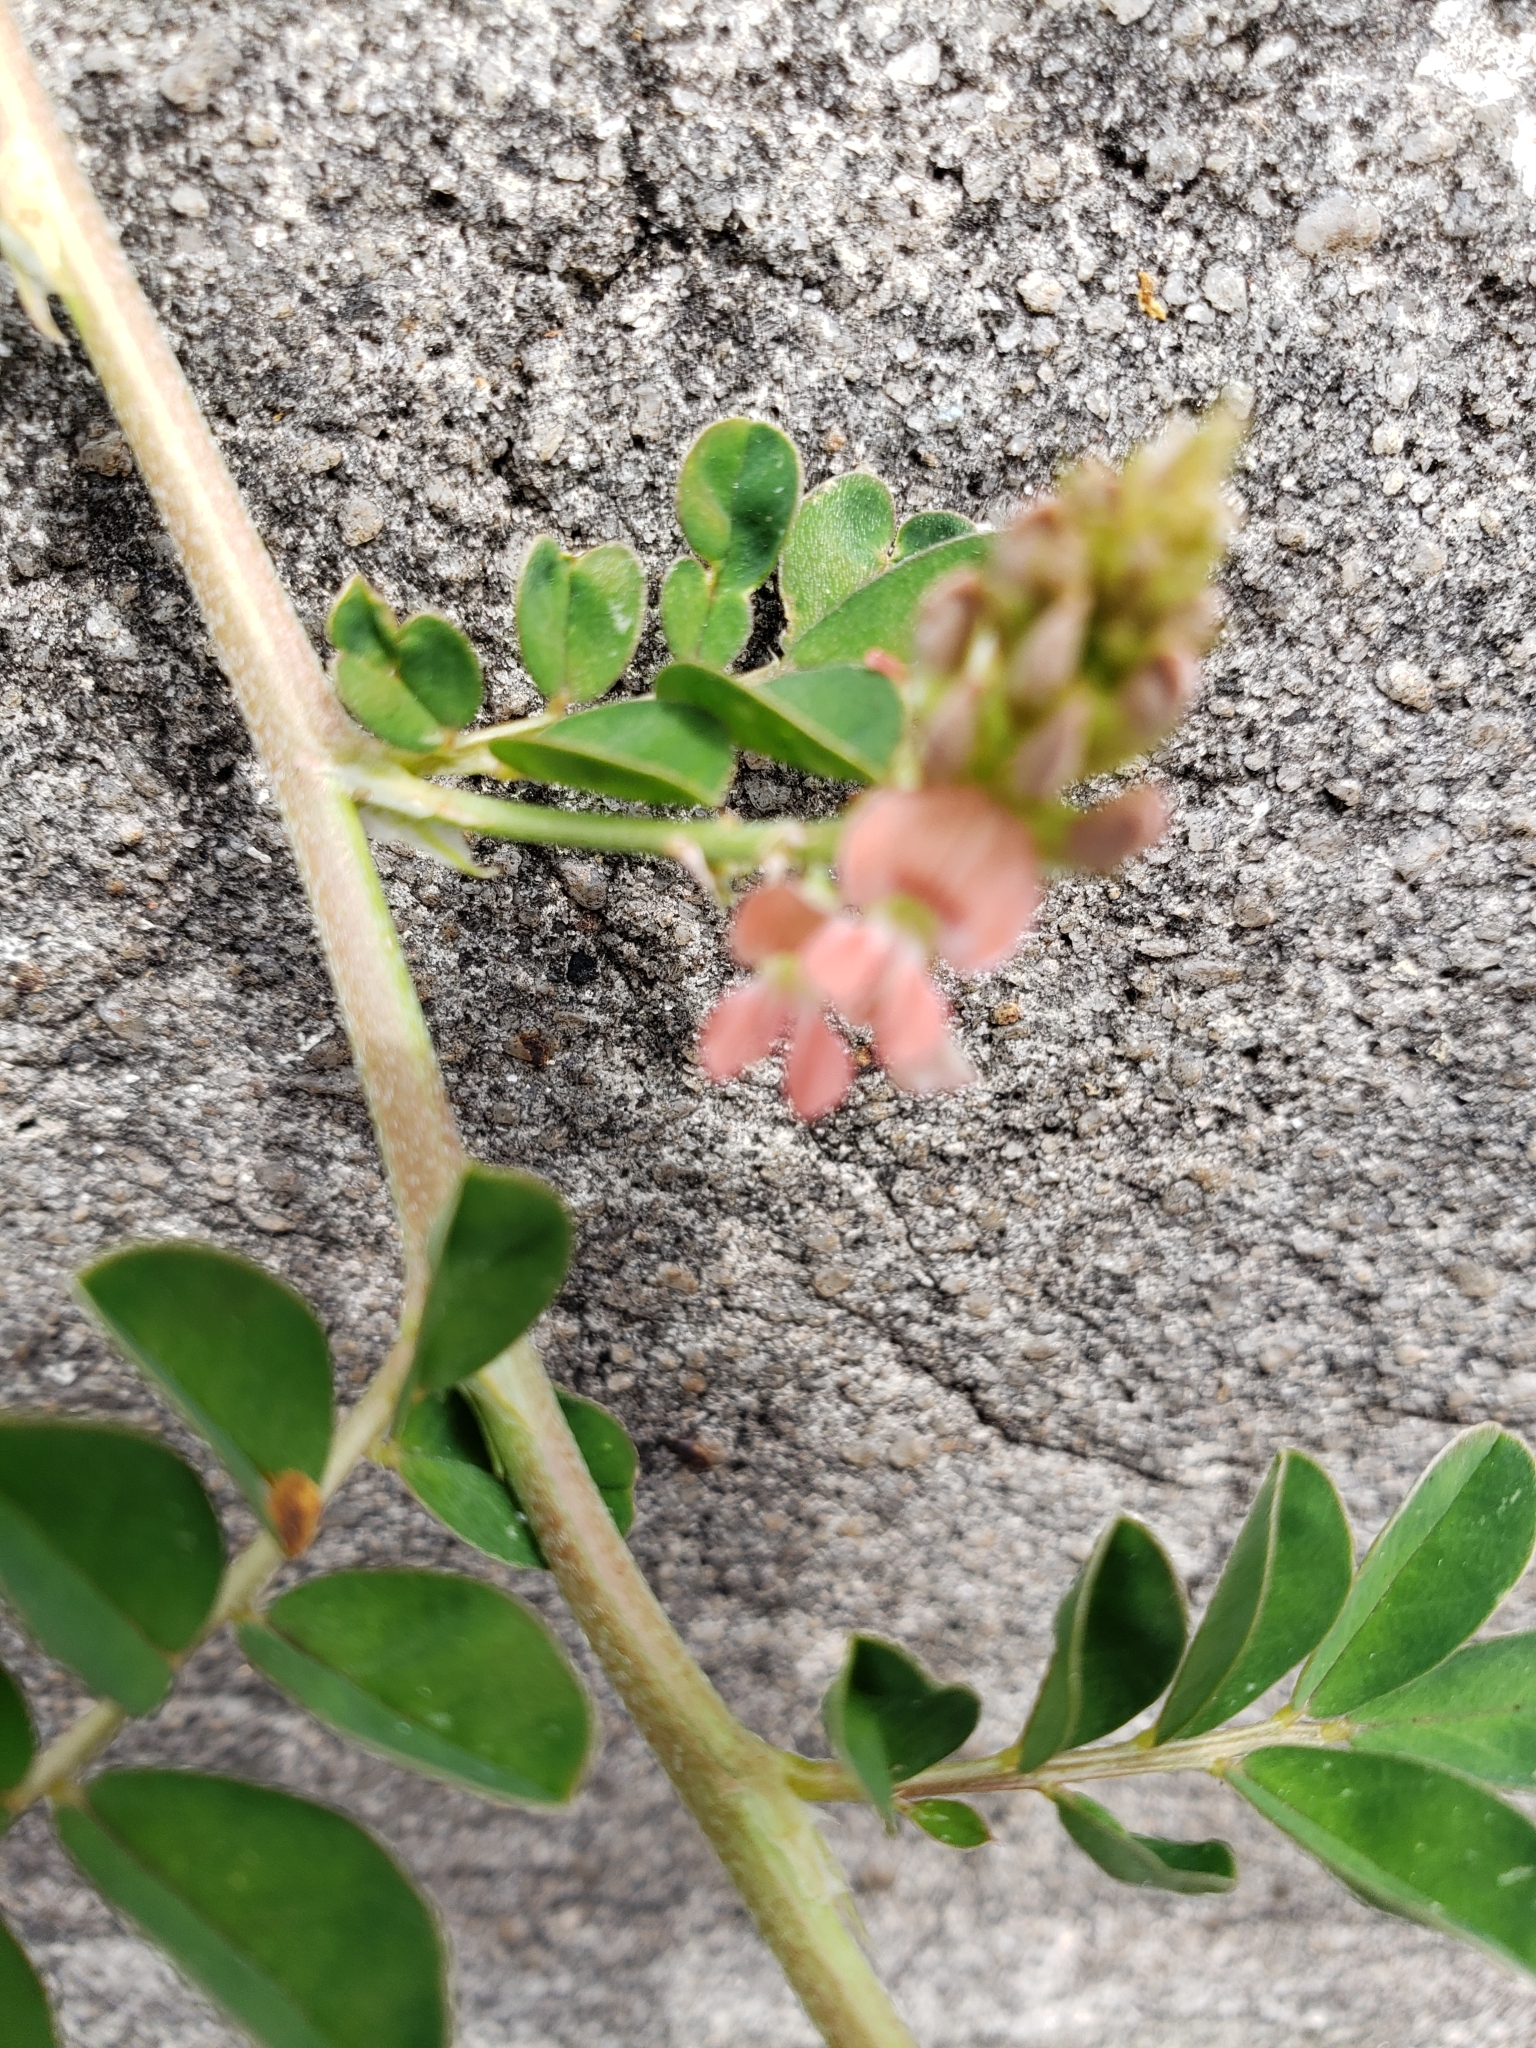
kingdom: Plantae
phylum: Tracheophyta
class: Magnoliopsida
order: Fabales
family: Fabaceae
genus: Indigofera
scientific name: Indigofera spicata
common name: Creeping indigo
